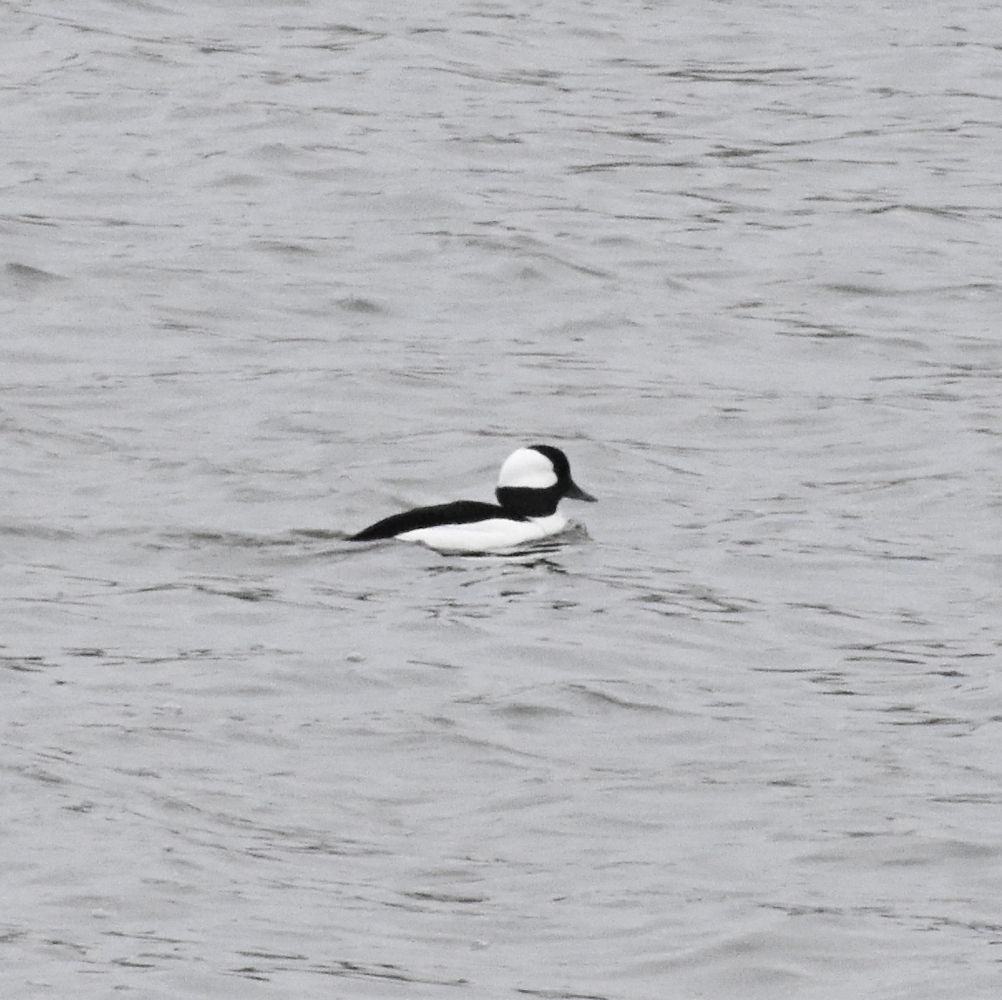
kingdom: Animalia
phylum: Chordata
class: Aves
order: Anseriformes
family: Anatidae
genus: Bucephala
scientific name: Bucephala albeola
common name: Bufflehead
